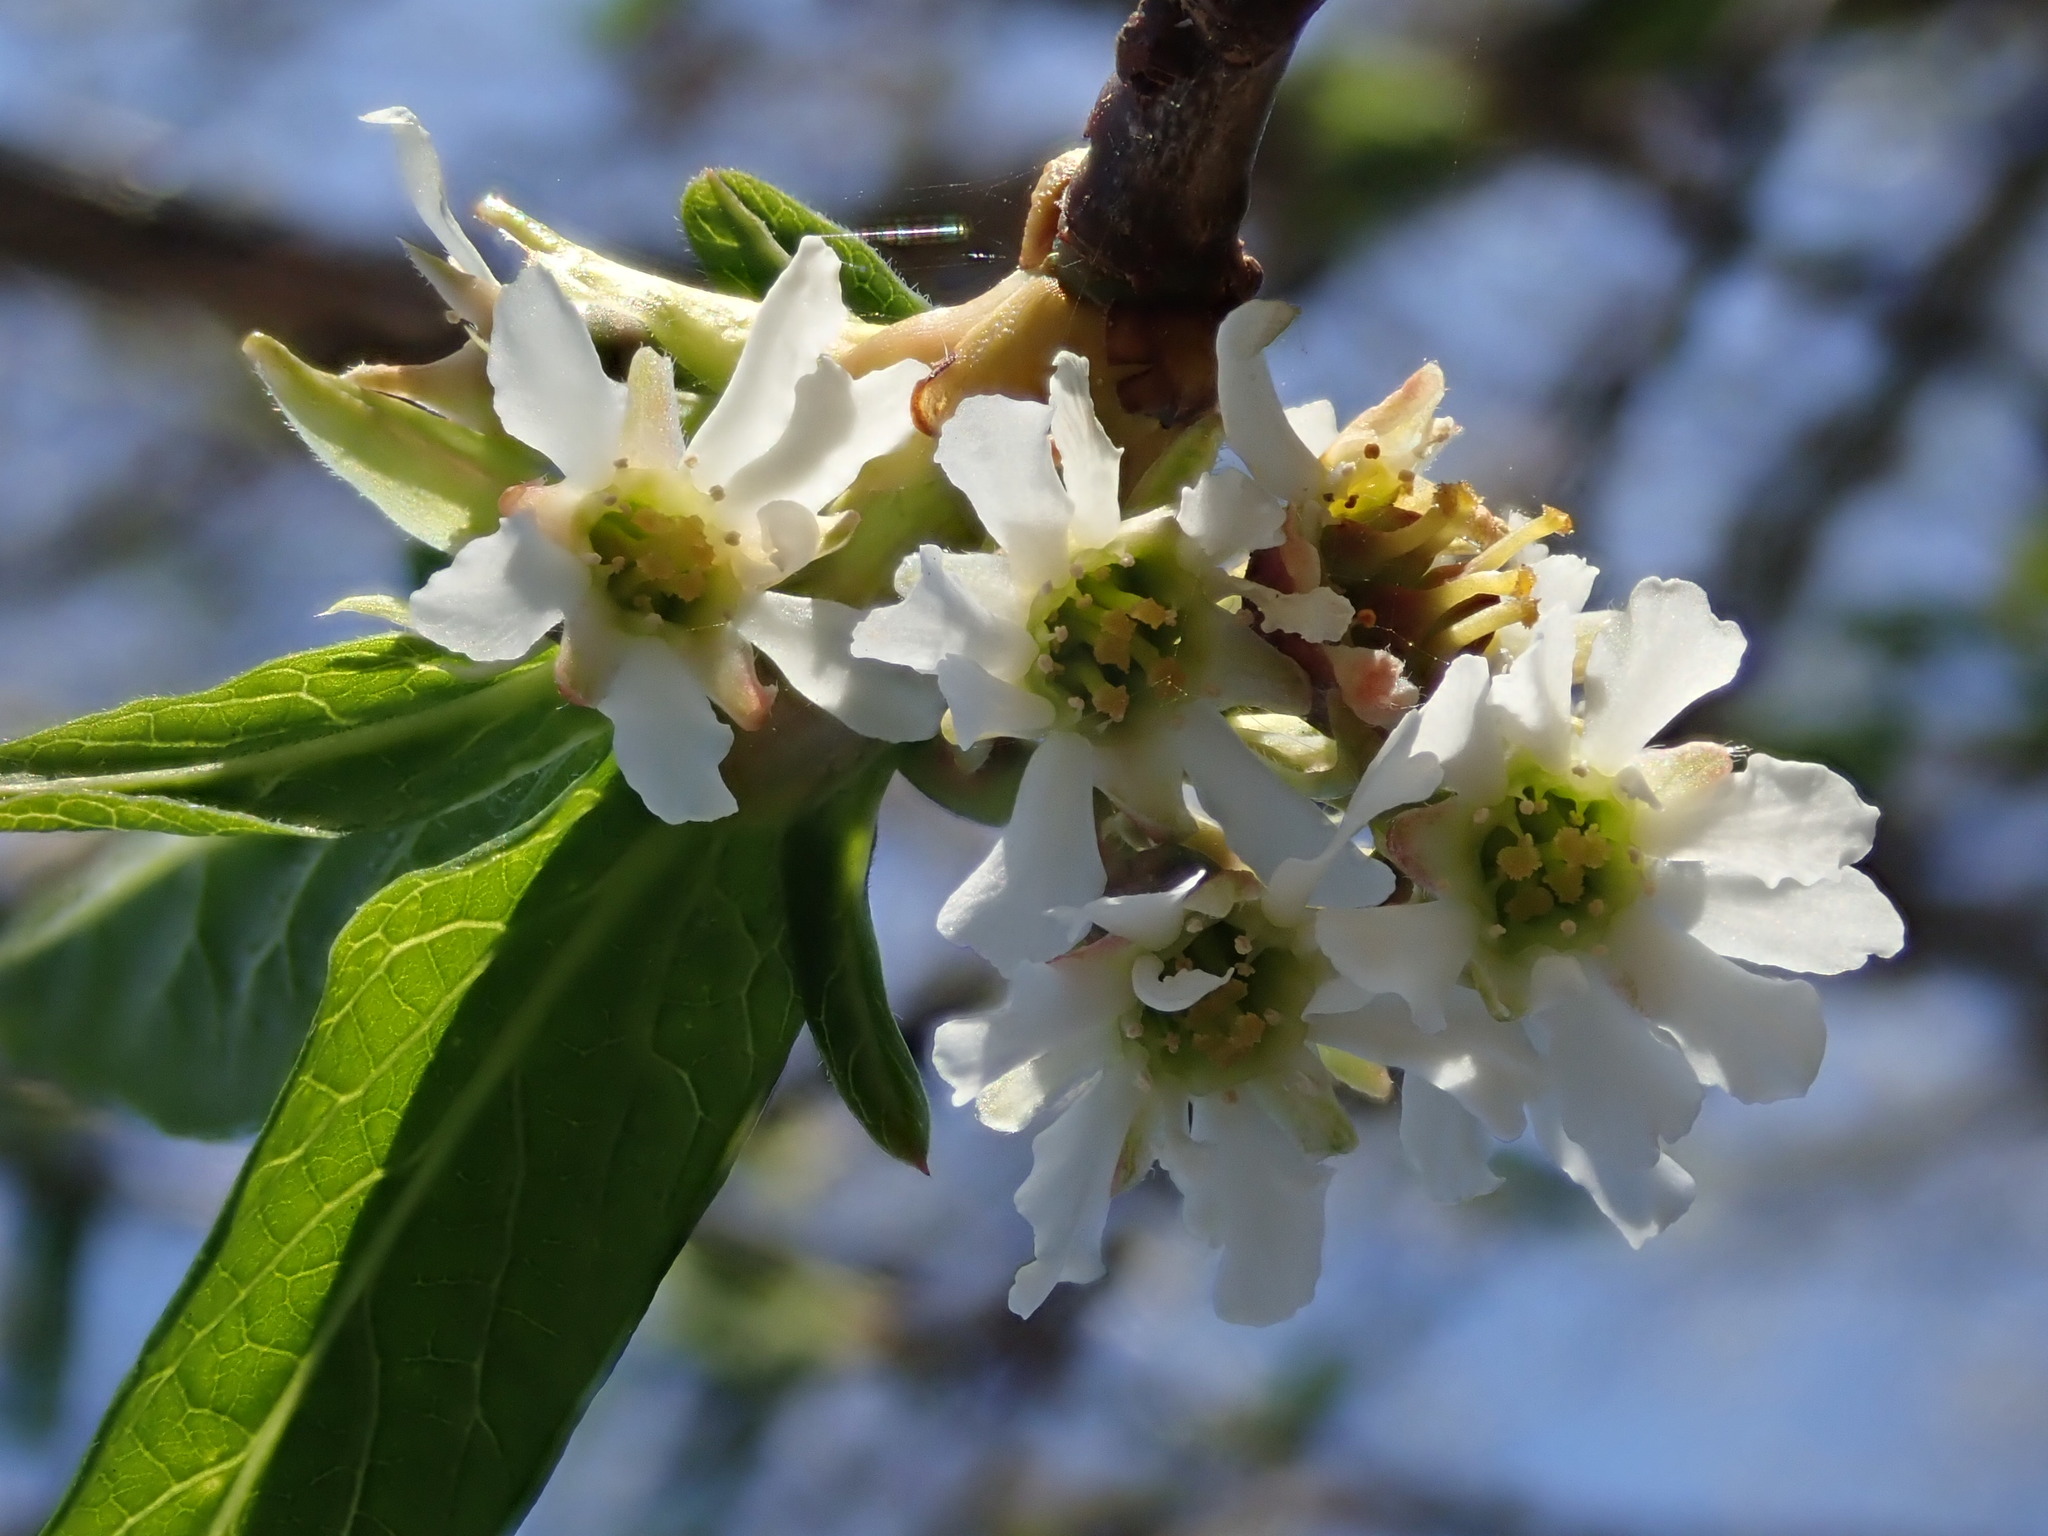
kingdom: Plantae
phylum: Tracheophyta
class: Magnoliopsida
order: Rosales
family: Rosaceae
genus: Oemleria
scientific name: Oemleria cerasiformis
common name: Osoberry
